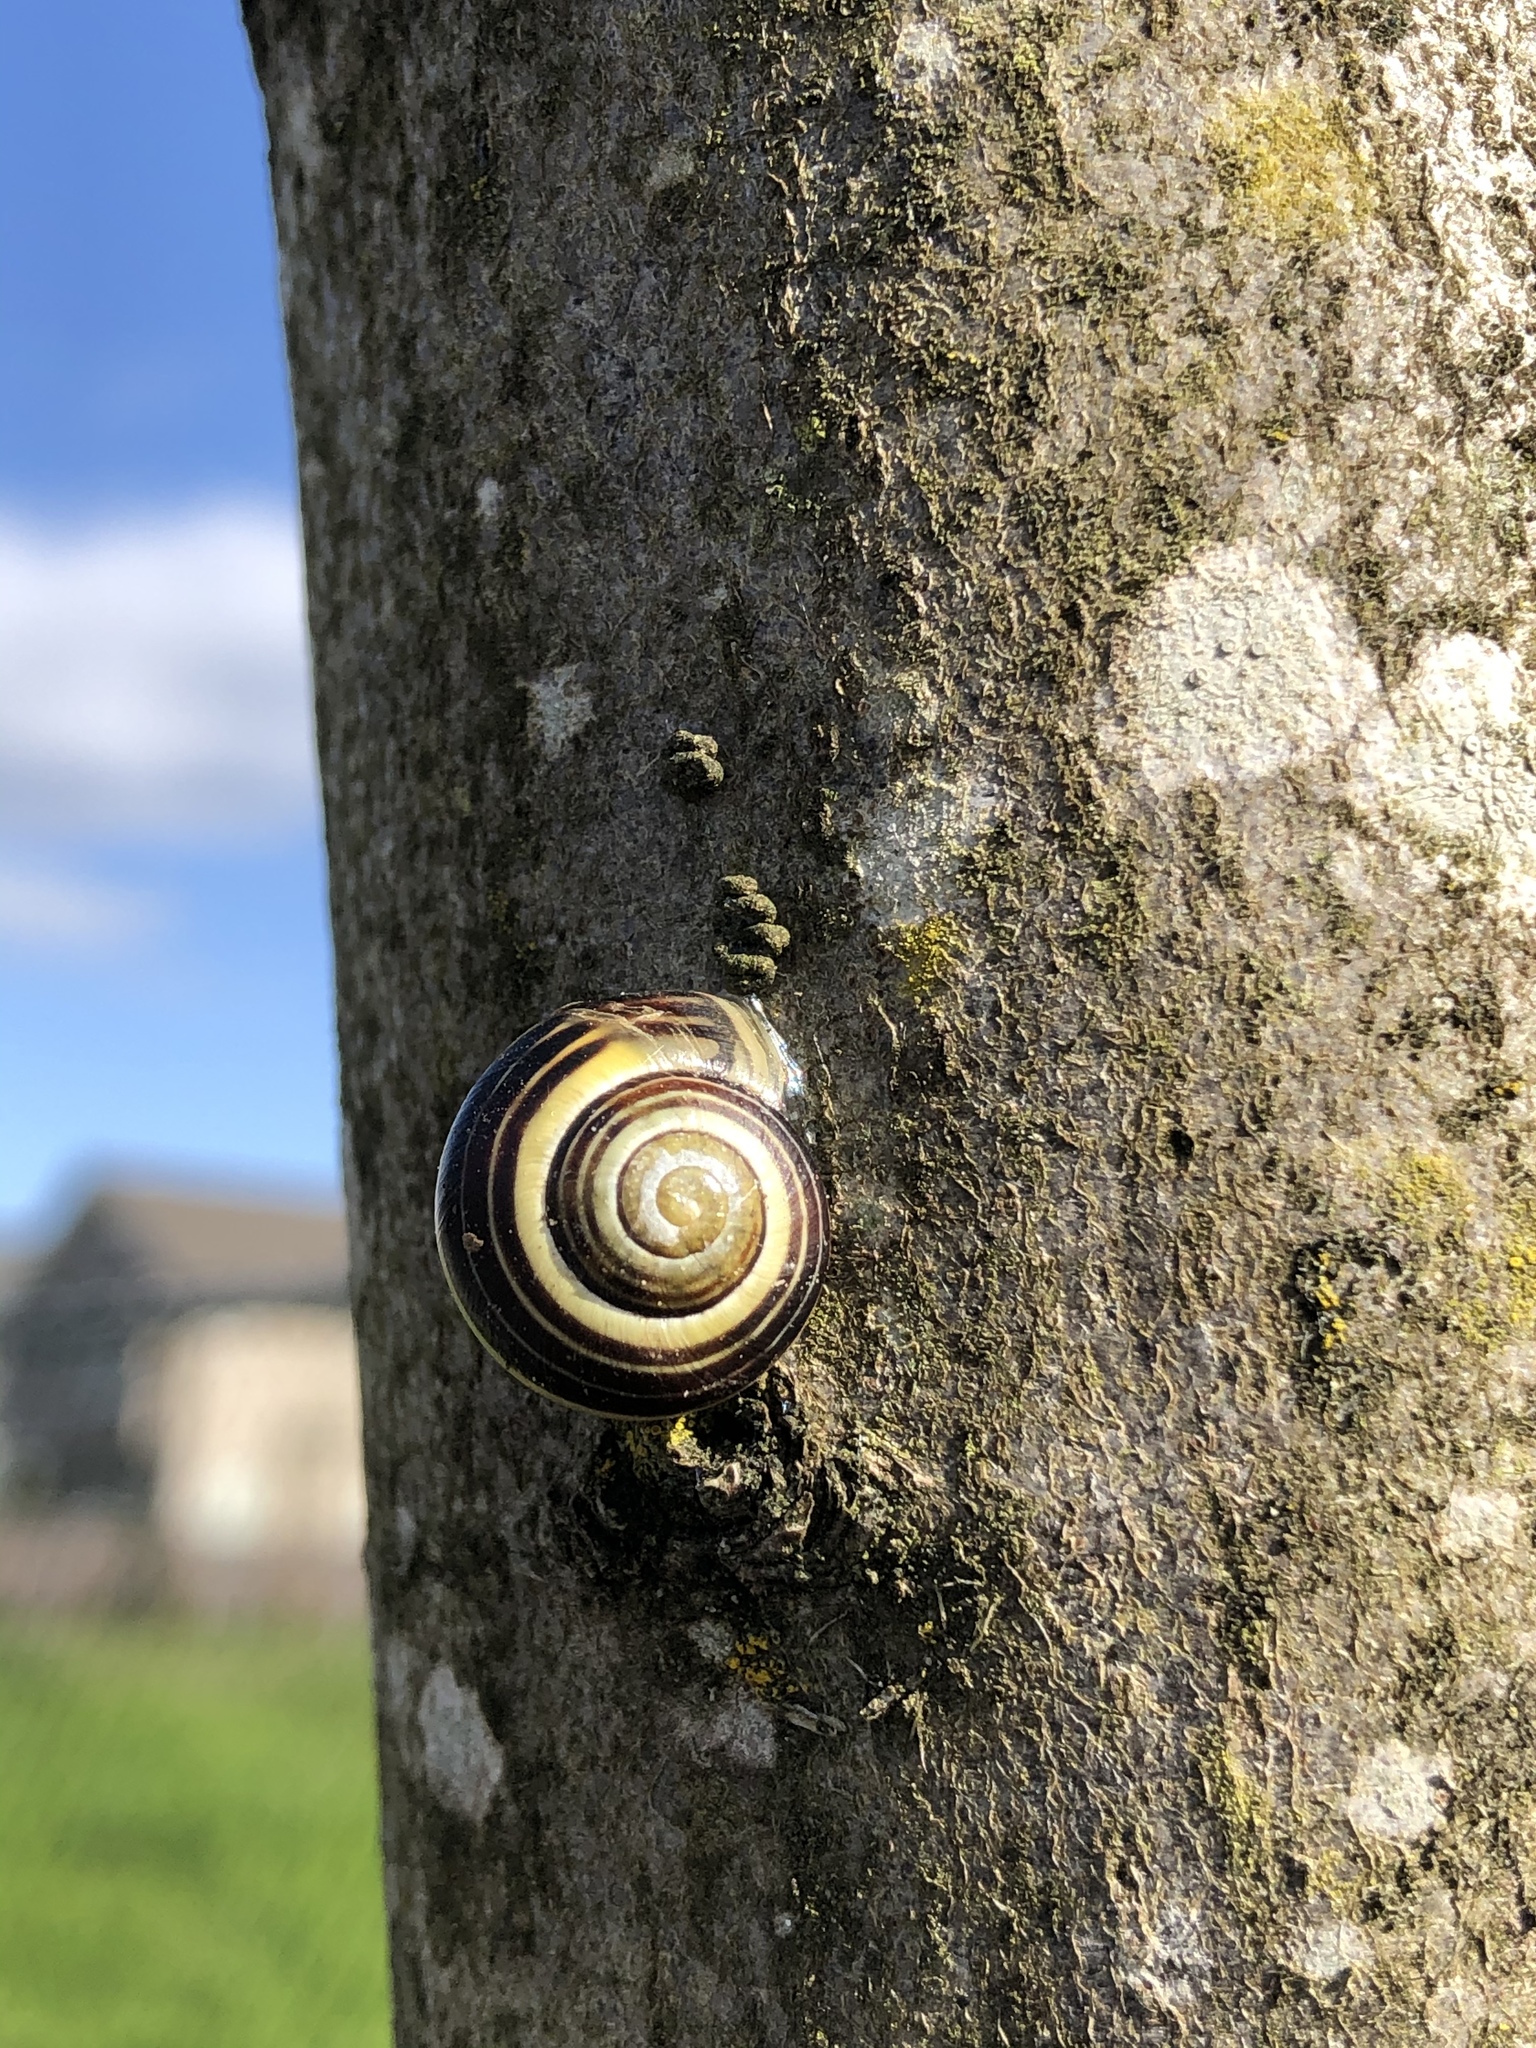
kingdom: Animalia
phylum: Mollusca
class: Gastropoda
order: Stylommatophora
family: Helicidae
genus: Cepaea
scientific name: Cepaea nemoralis
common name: Grovesnail
